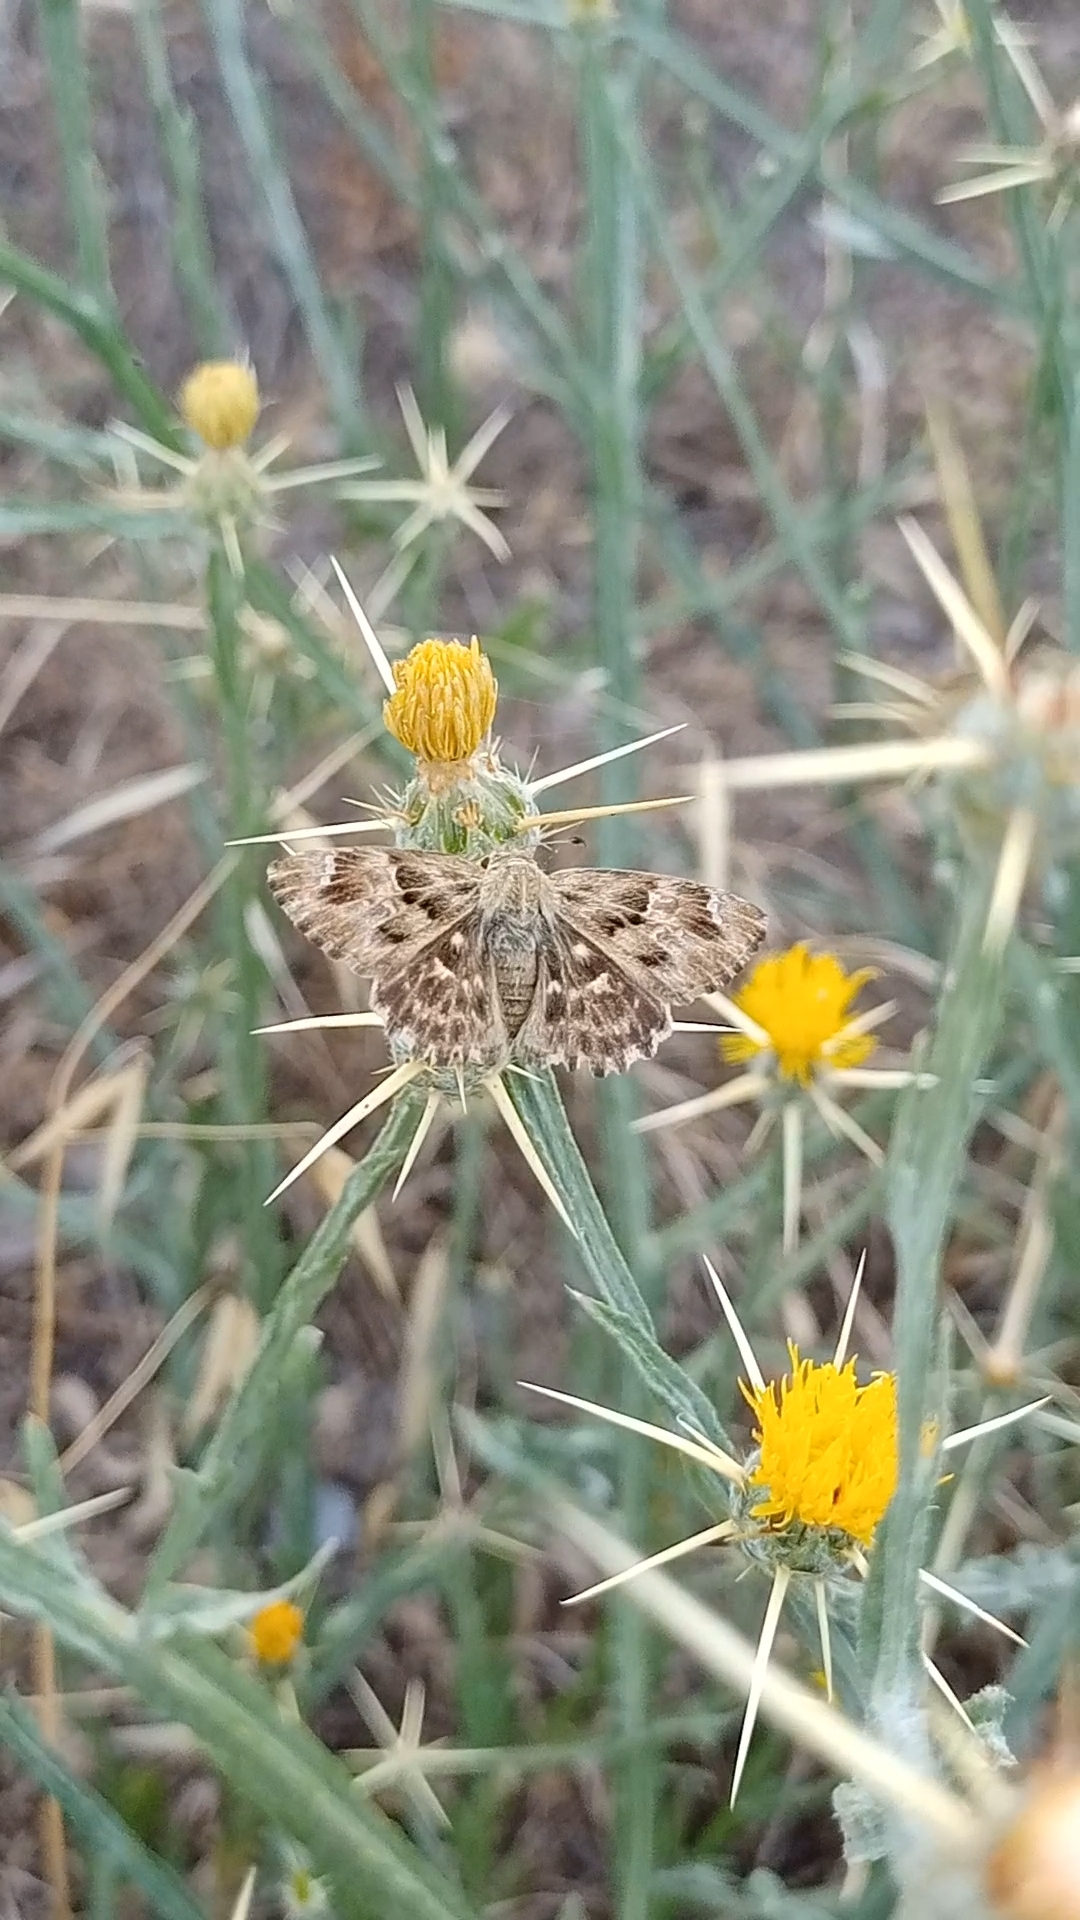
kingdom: Animalia
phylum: Arthropoda
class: Insecta
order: Lepidoptera
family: Hesperiidae
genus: Carcharodus
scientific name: Carcharodus alceae
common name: Mallow skipper
